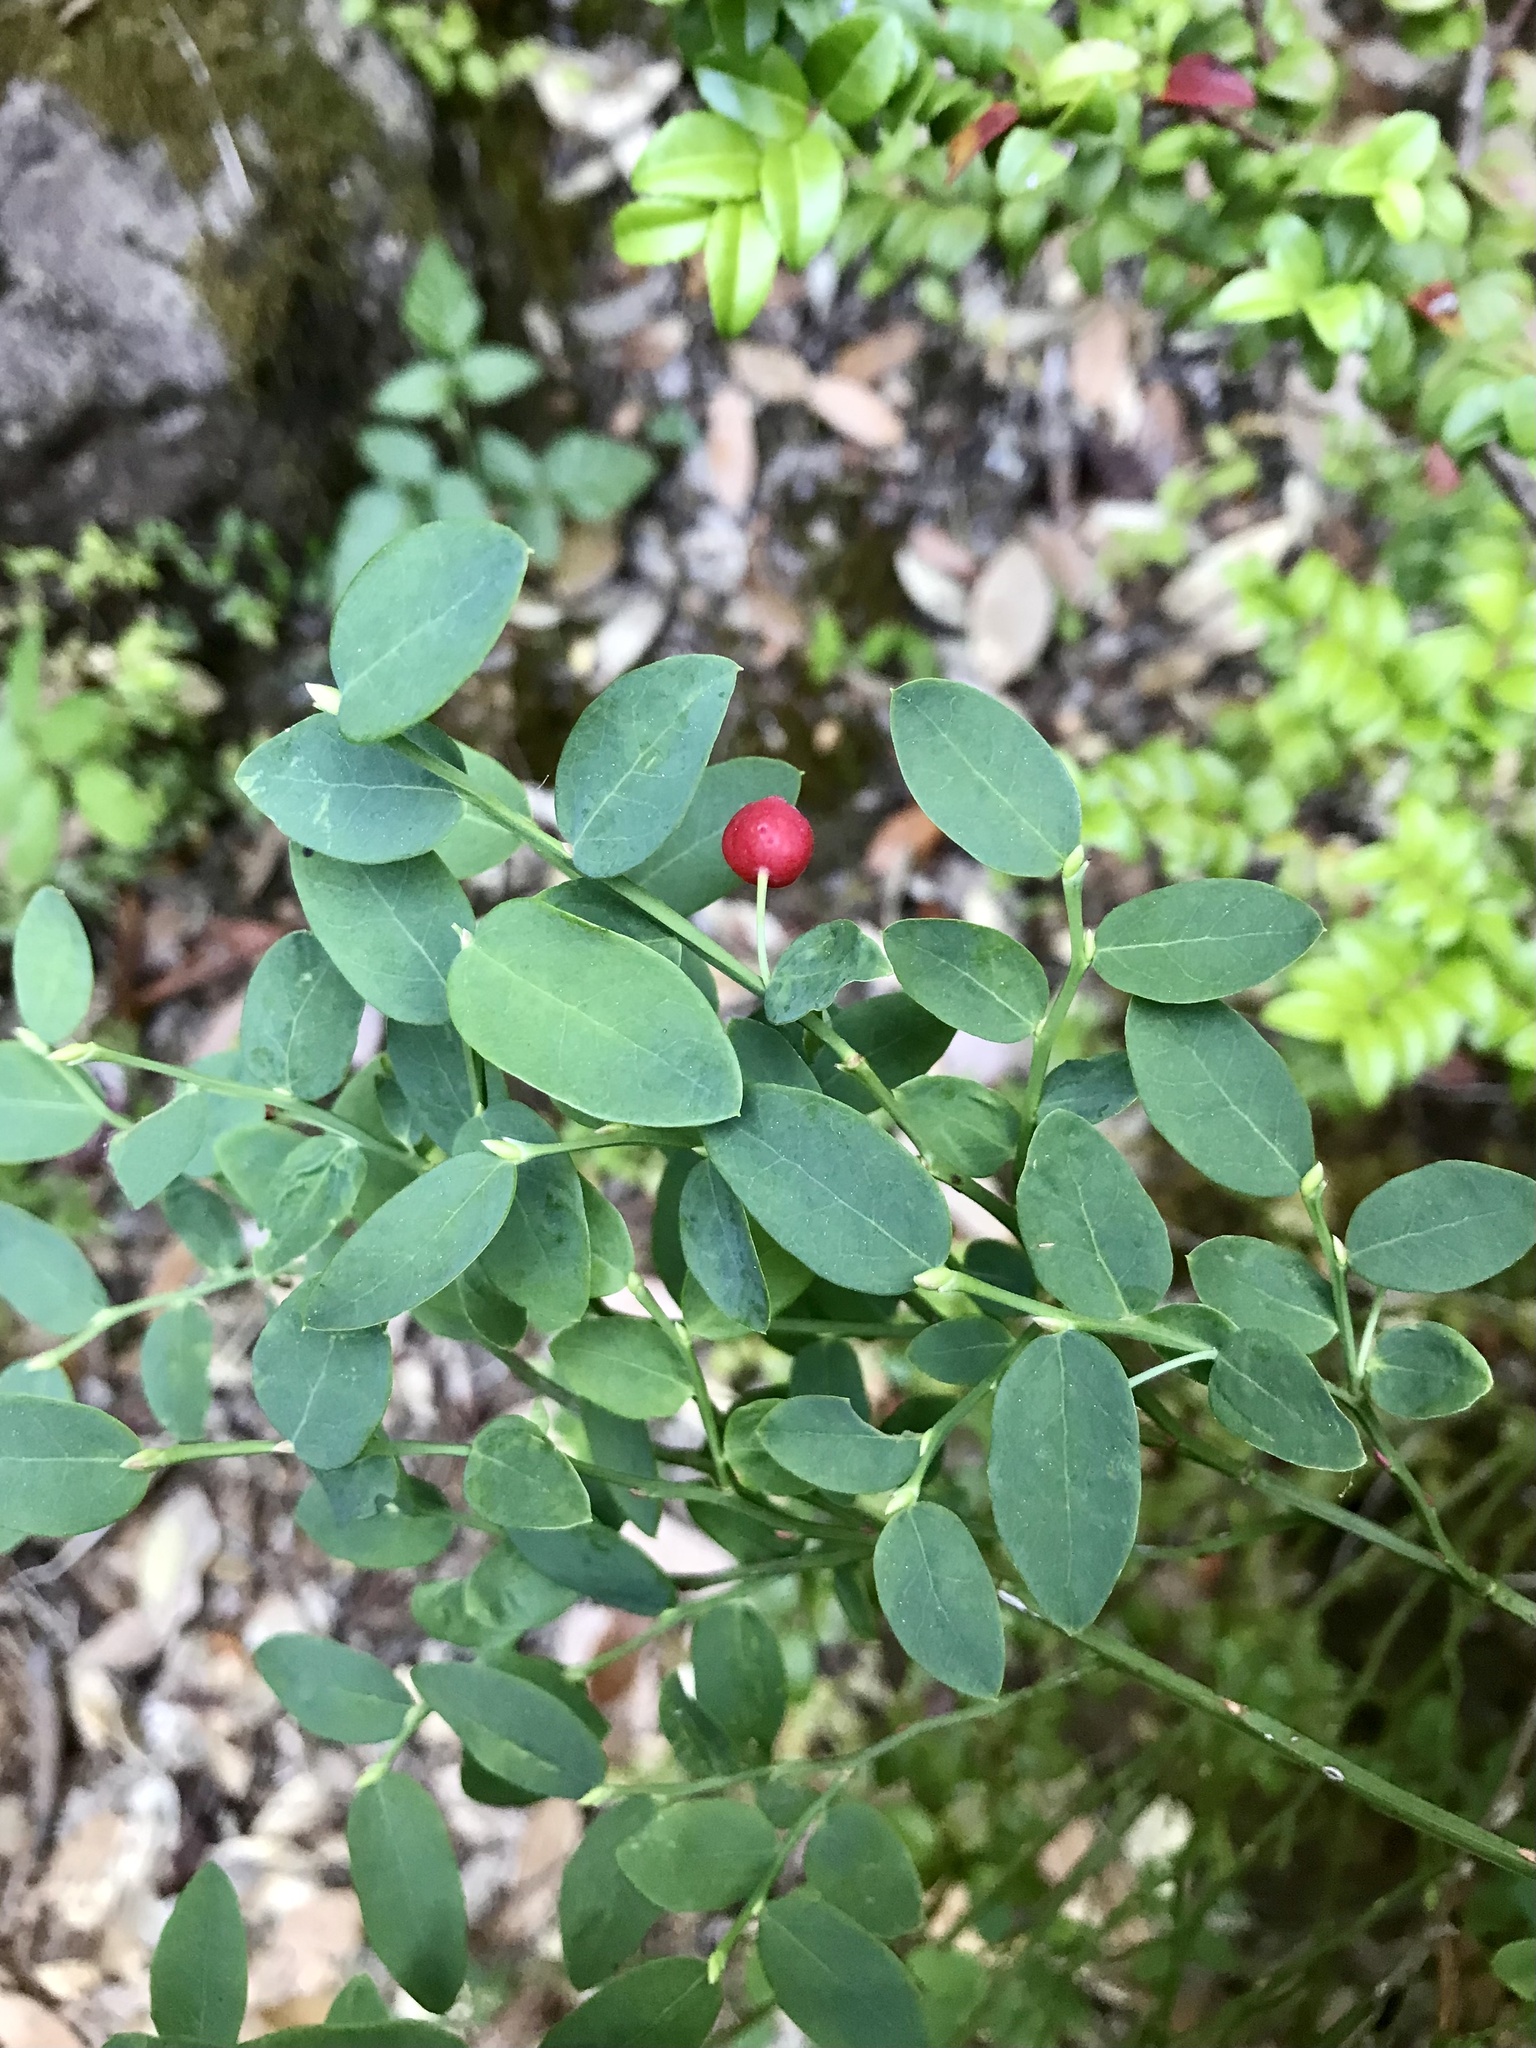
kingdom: Plantae
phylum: Tracheophyta
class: Magnoliopsida
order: Ericales
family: Ericaceae
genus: Vaccinium
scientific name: Vaccinium parvifolium
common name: Red-huckleberry
